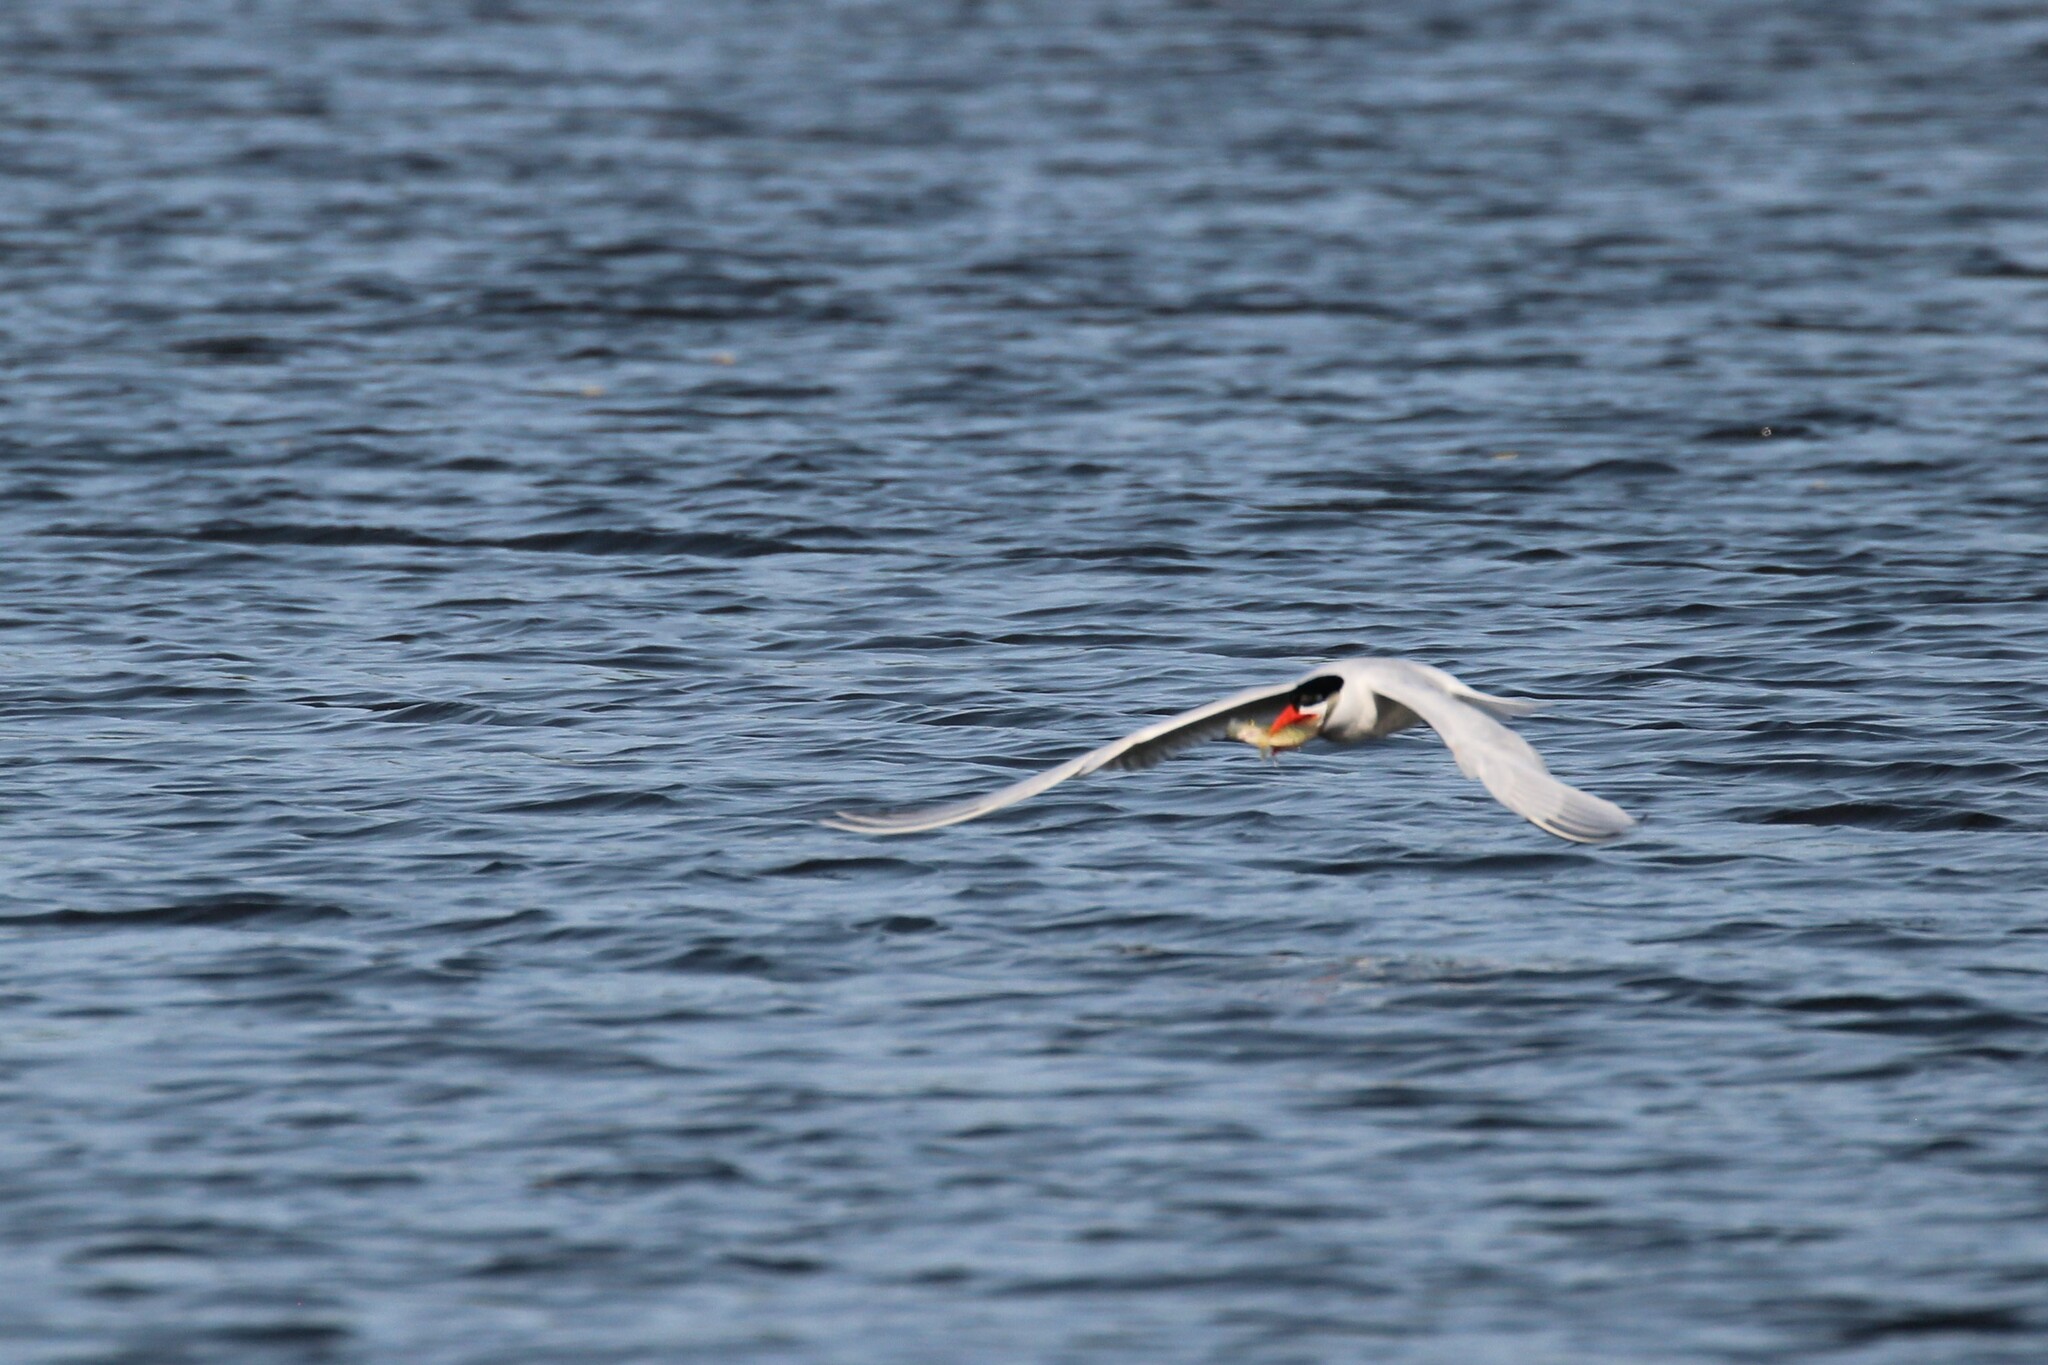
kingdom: Animalia
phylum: Chordata
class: Aves
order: Charadriiformes
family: Laridae
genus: Hydroprogne
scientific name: Hydroprogne caspia
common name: Caspian tern
